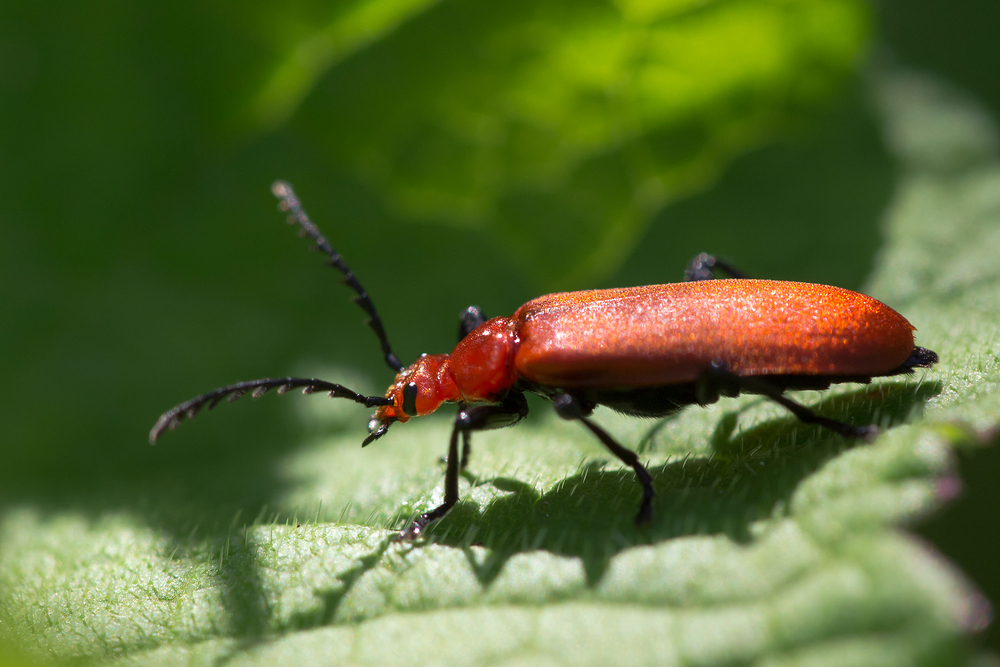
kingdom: Animalia
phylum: Arthropoda
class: Insecta
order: Coleoptera
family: Pyrochroidae
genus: Pyrochroa
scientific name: Pyrochroa serraticornis
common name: Red-headed cardinal beetle
